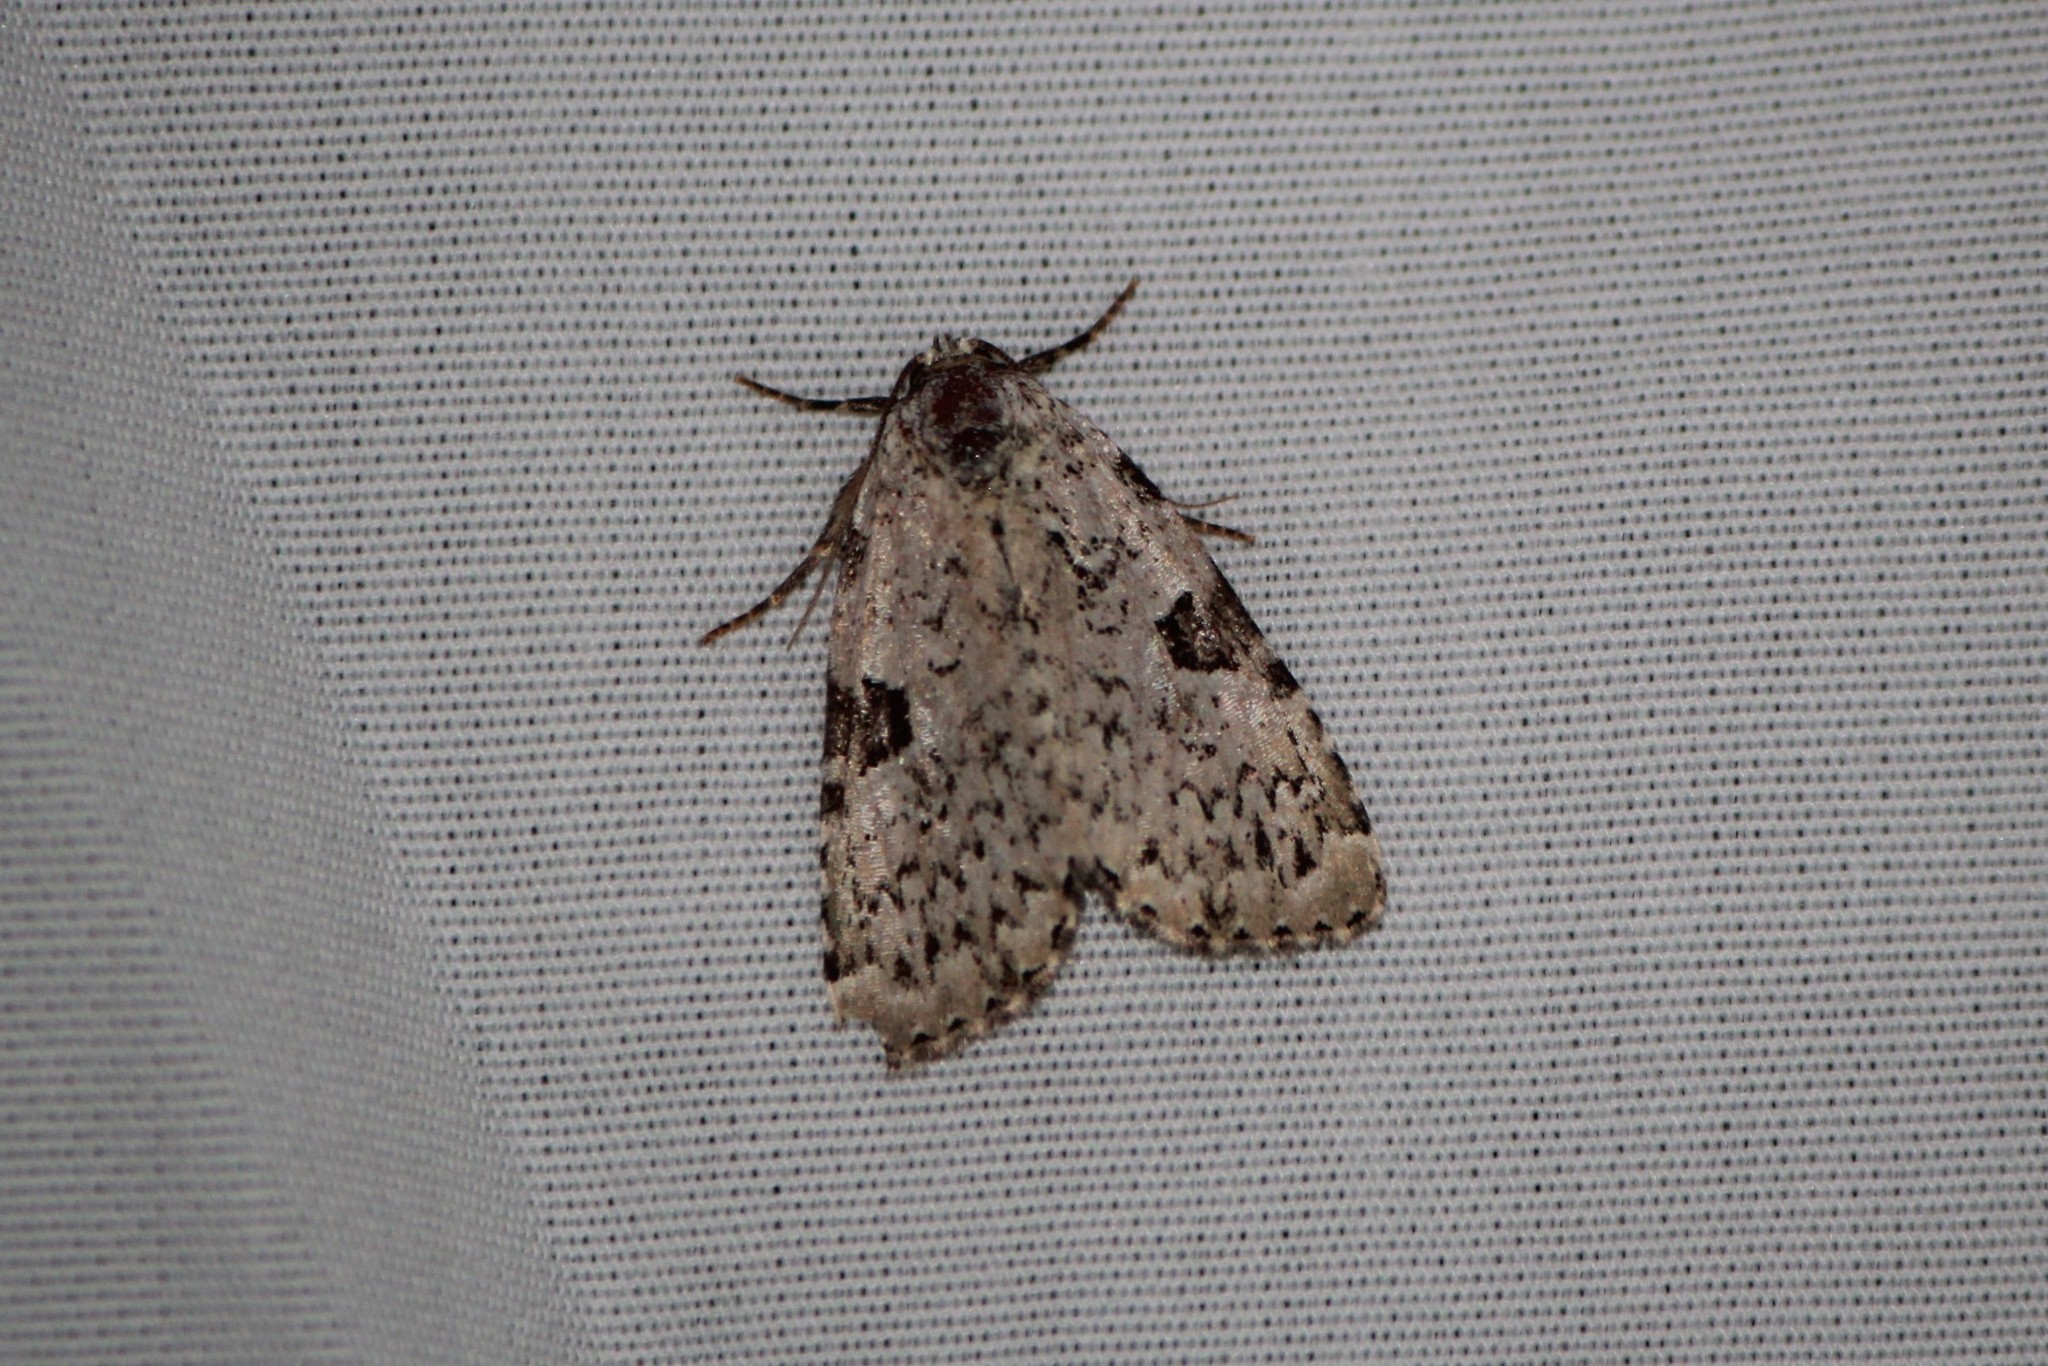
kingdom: Animalia
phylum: Arthropoda
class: Insecta
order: Lepidoptera
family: Noctuidae
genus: Leuconycta
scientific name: Leuconycta diphteroides
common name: Green leuconycta moth
